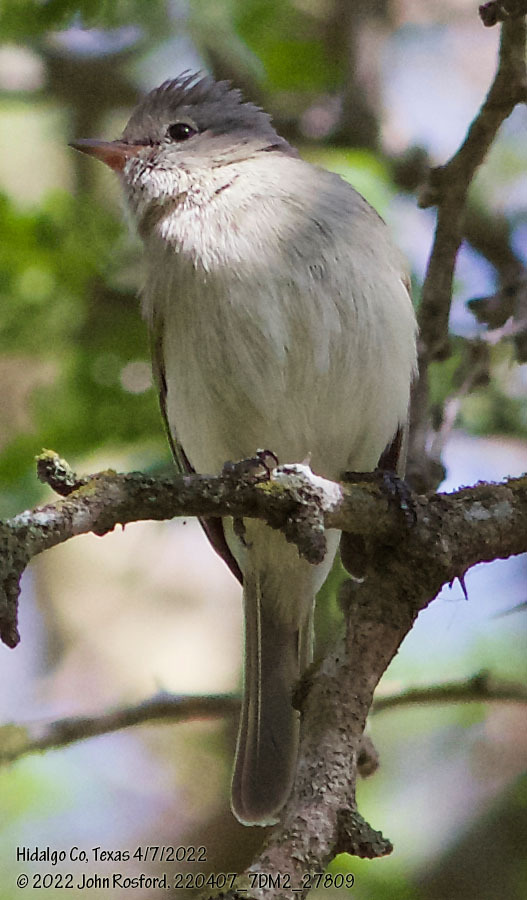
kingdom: Animalia
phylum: Chordata
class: Aves
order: Passeriformes
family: Tyrannidae
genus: Camptostoma
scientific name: Camptostoma imberbe
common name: Northern beardless-tyrannulet
